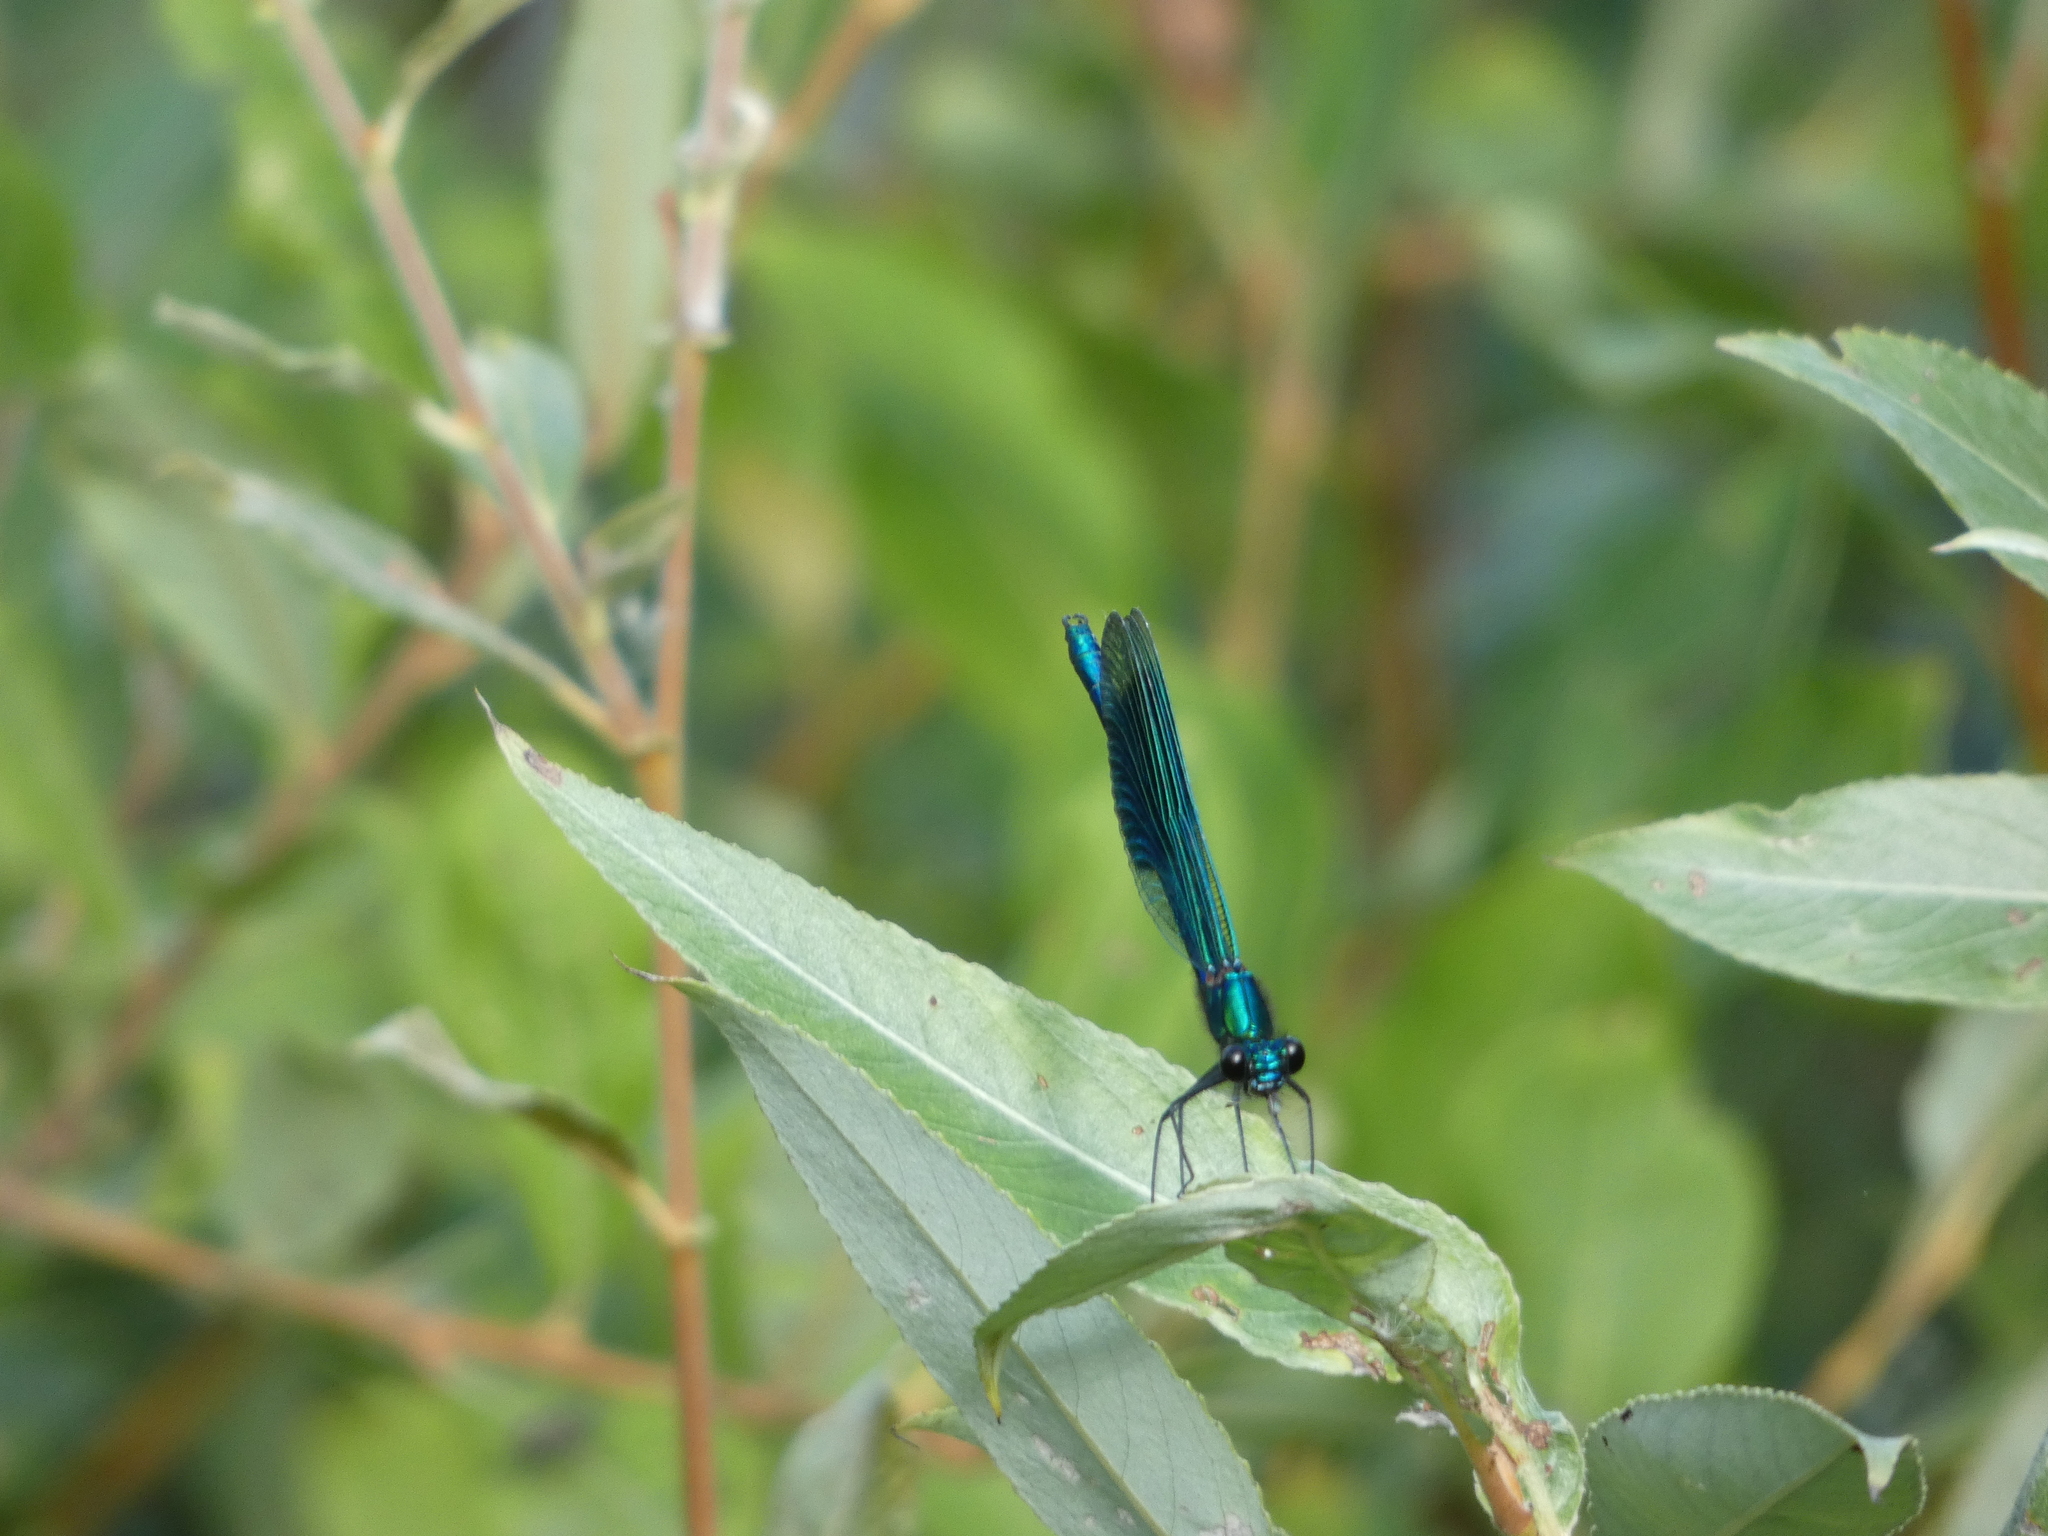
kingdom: Animalia
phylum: Arthropoda
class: Insecta
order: Odonata
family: Calopterygidae
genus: Calopteryx
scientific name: Calopteryx splendens
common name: Banded demoiselle
